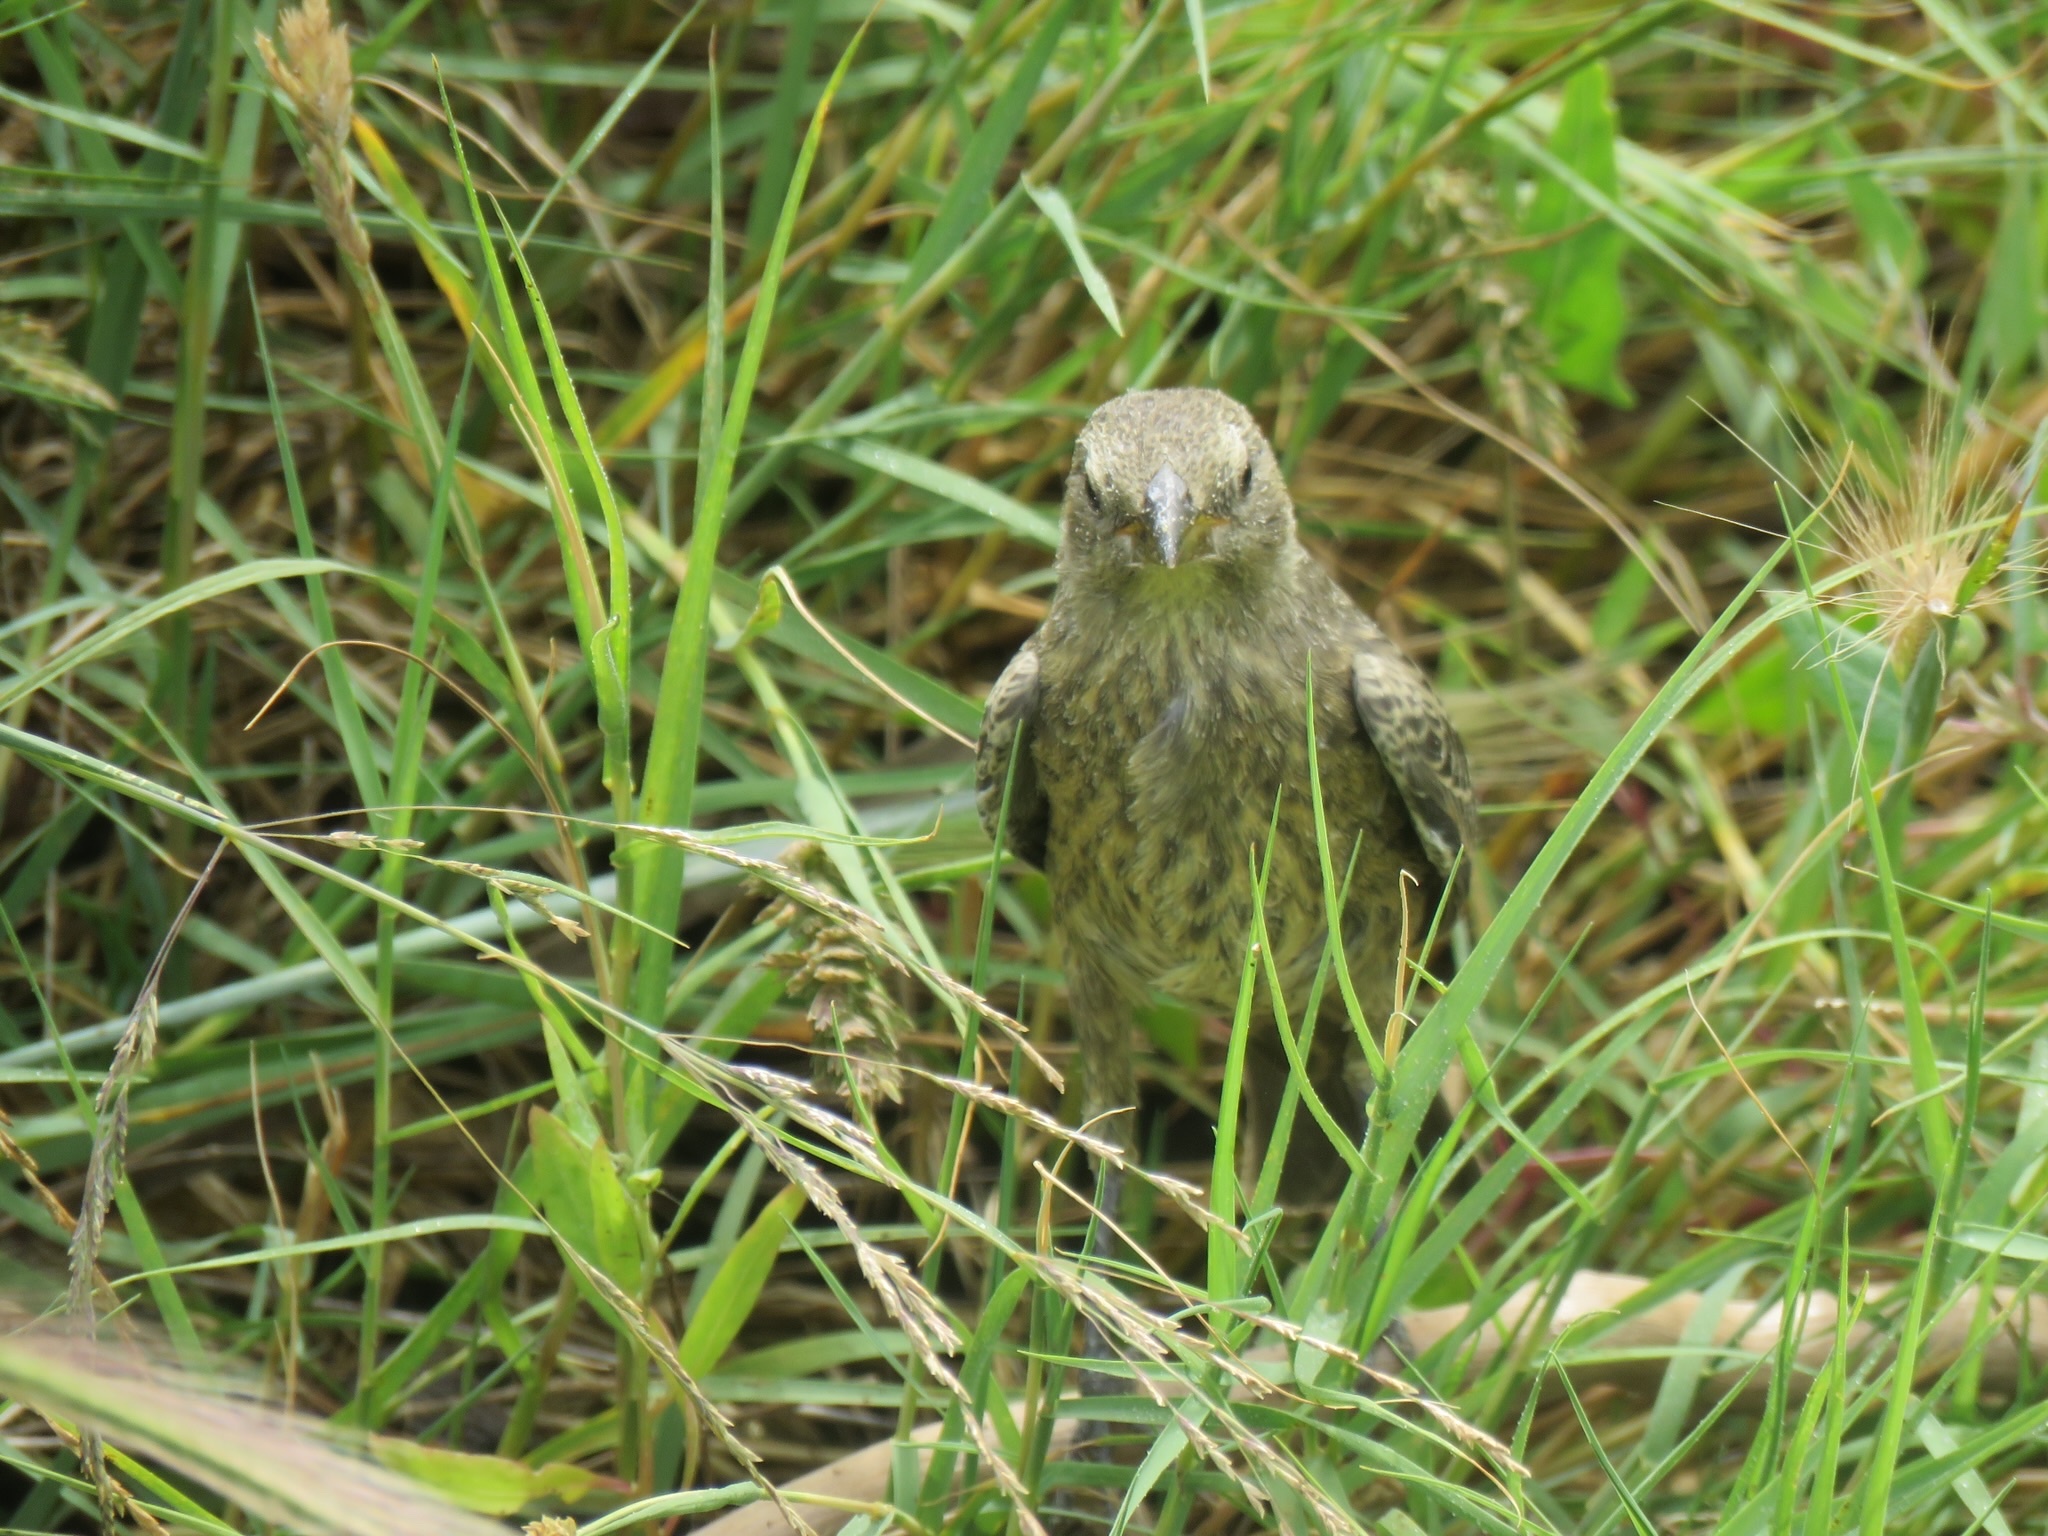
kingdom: Animalia
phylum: Chordata
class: Aves
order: Passeriformes
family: Icteridae
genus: Molothrus
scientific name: Molothrus ater
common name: Brown-headed cowbird
